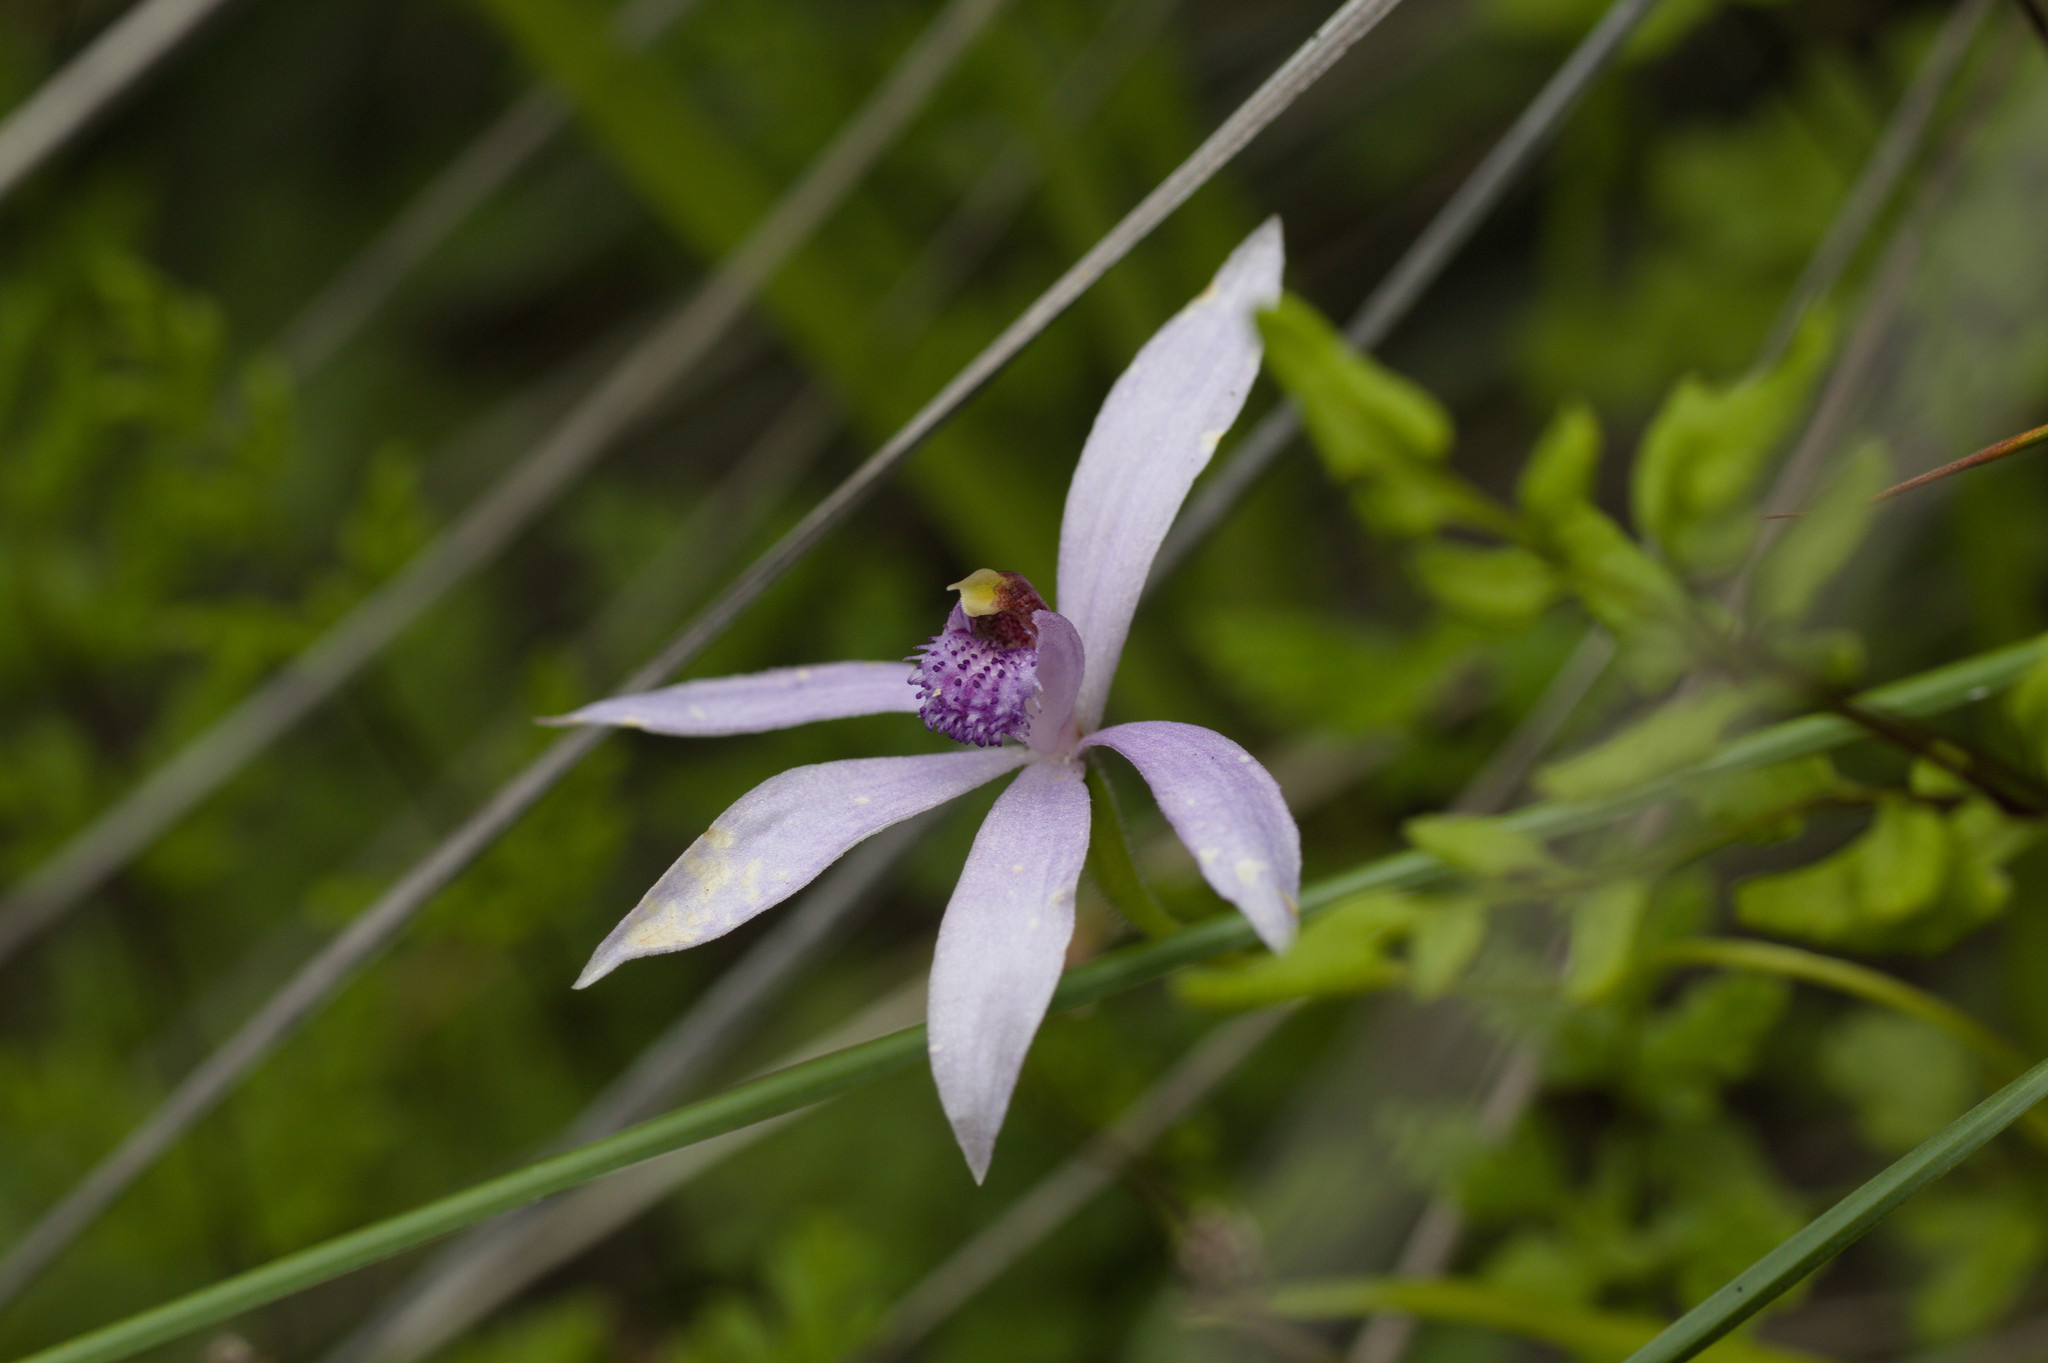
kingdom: Plantae
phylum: Tracheophyta
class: Liliopsida
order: Asparagales
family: Orchidaceae
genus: Pheladenia
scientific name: Pheladenia deformis
